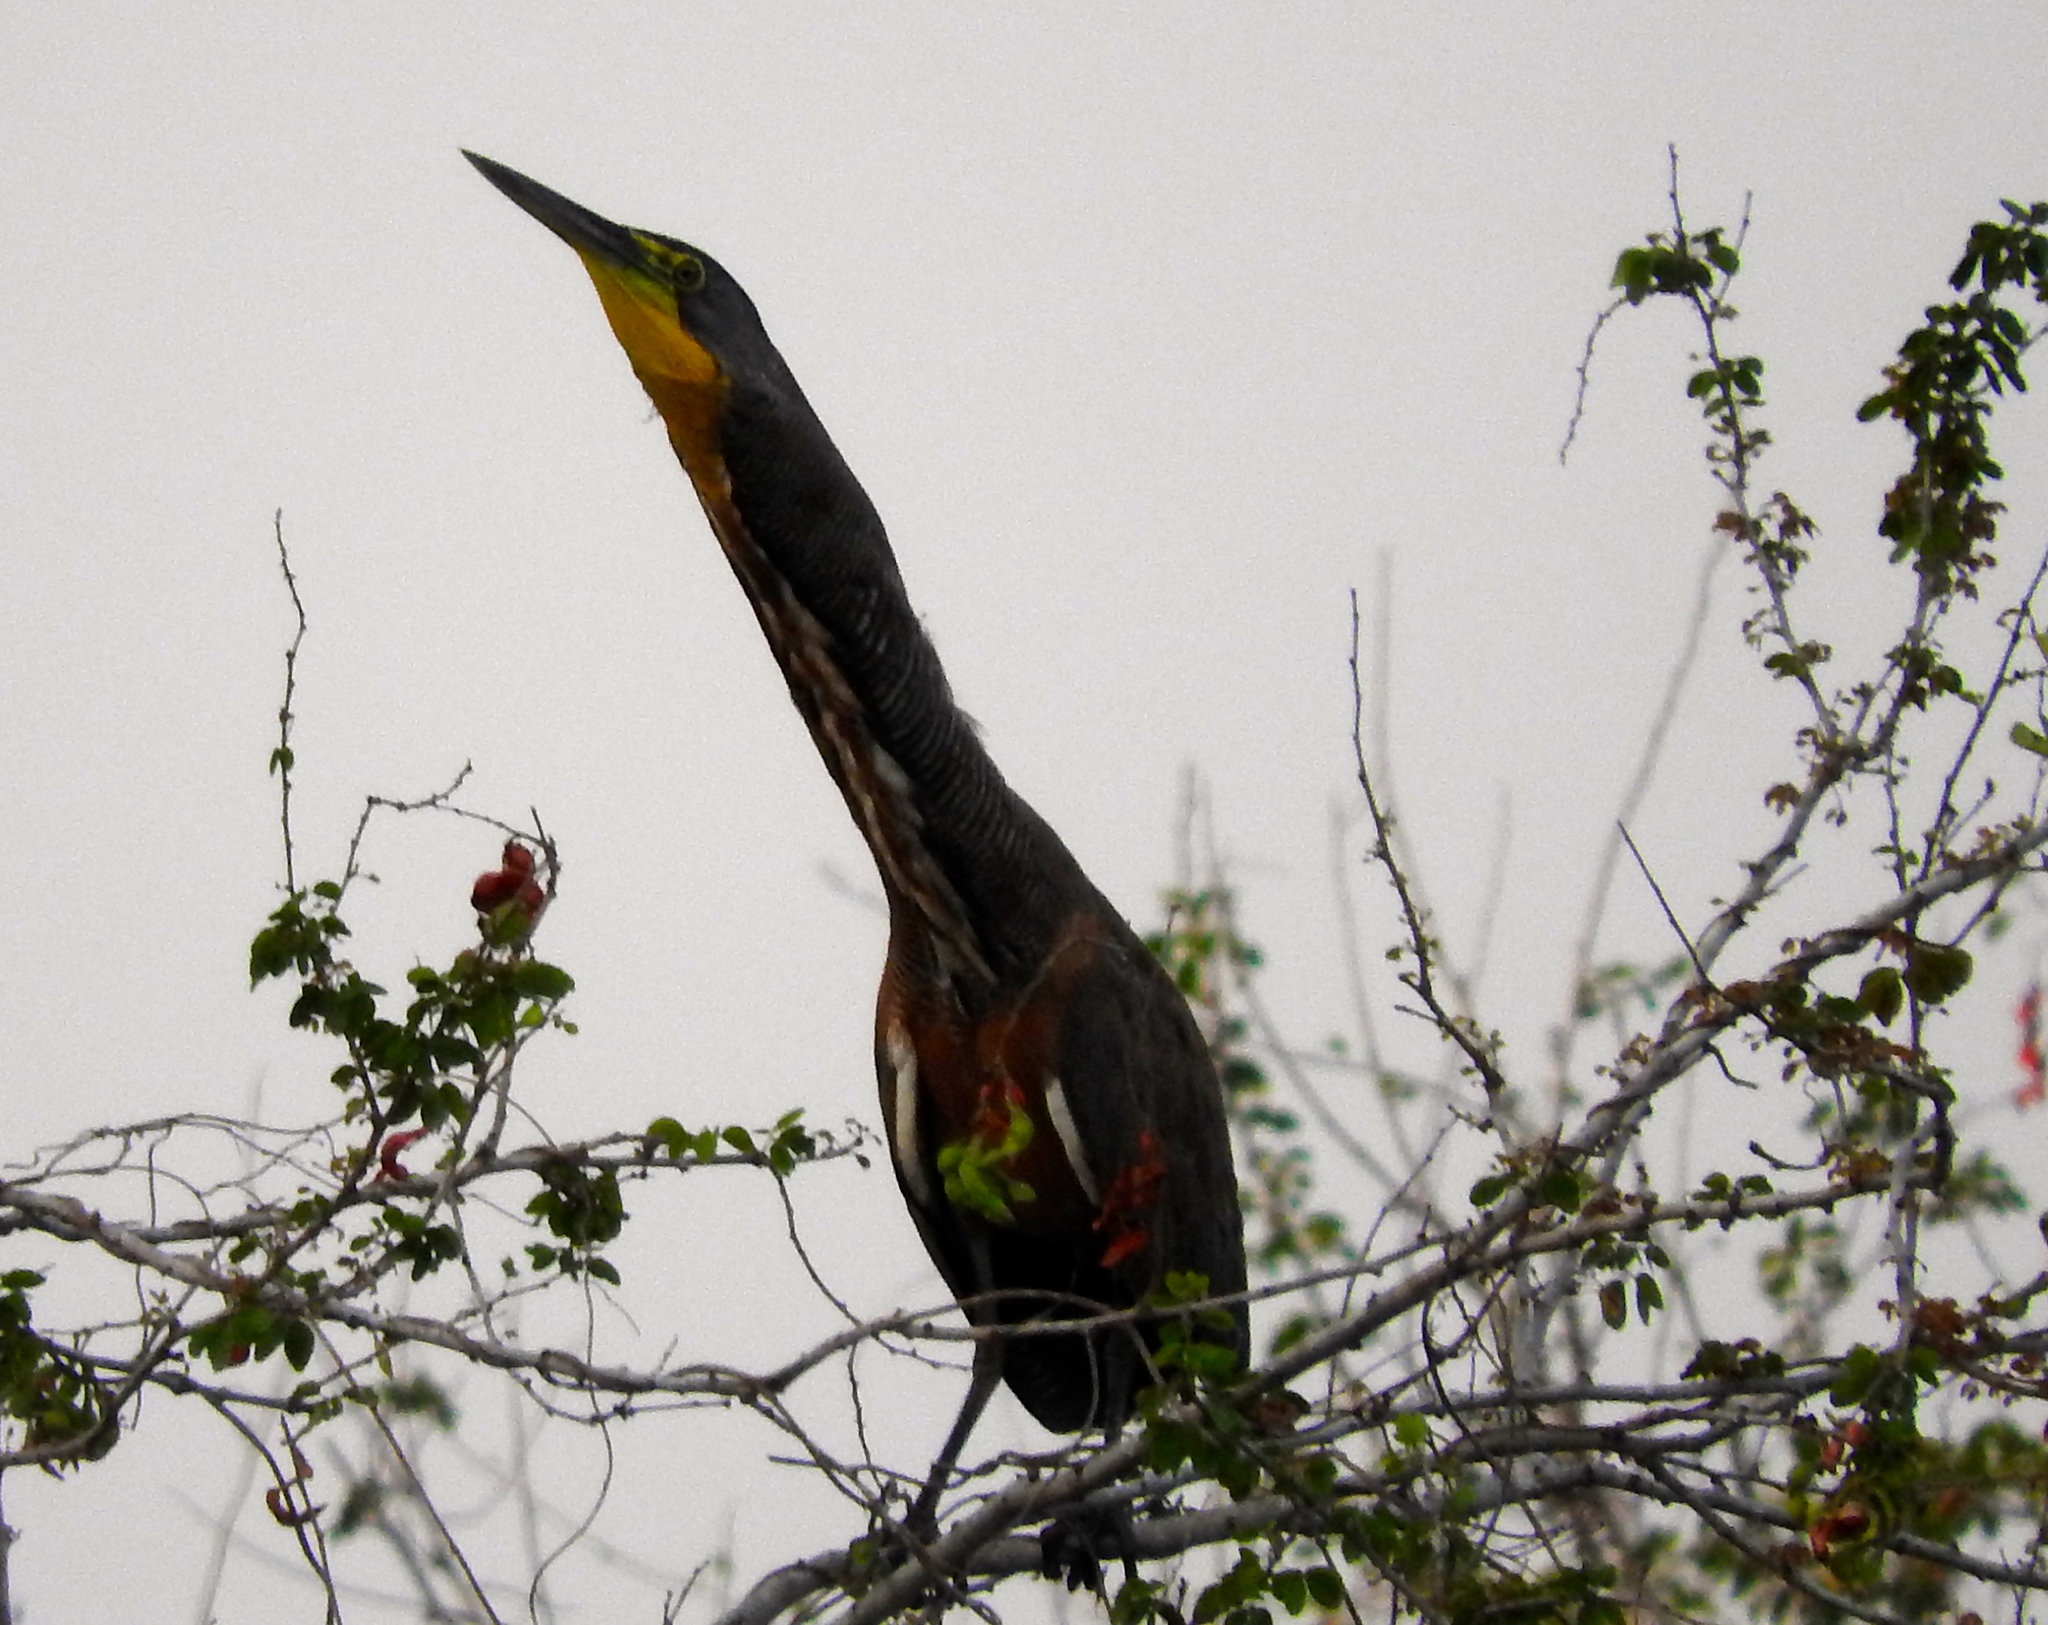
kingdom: Animalia
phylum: Chordata
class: Aves
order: Pelecaniformes
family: Ardeidae
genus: Tigrisoma
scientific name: Tigrisoma mexicanum
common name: Bare-throated tiger-heron
